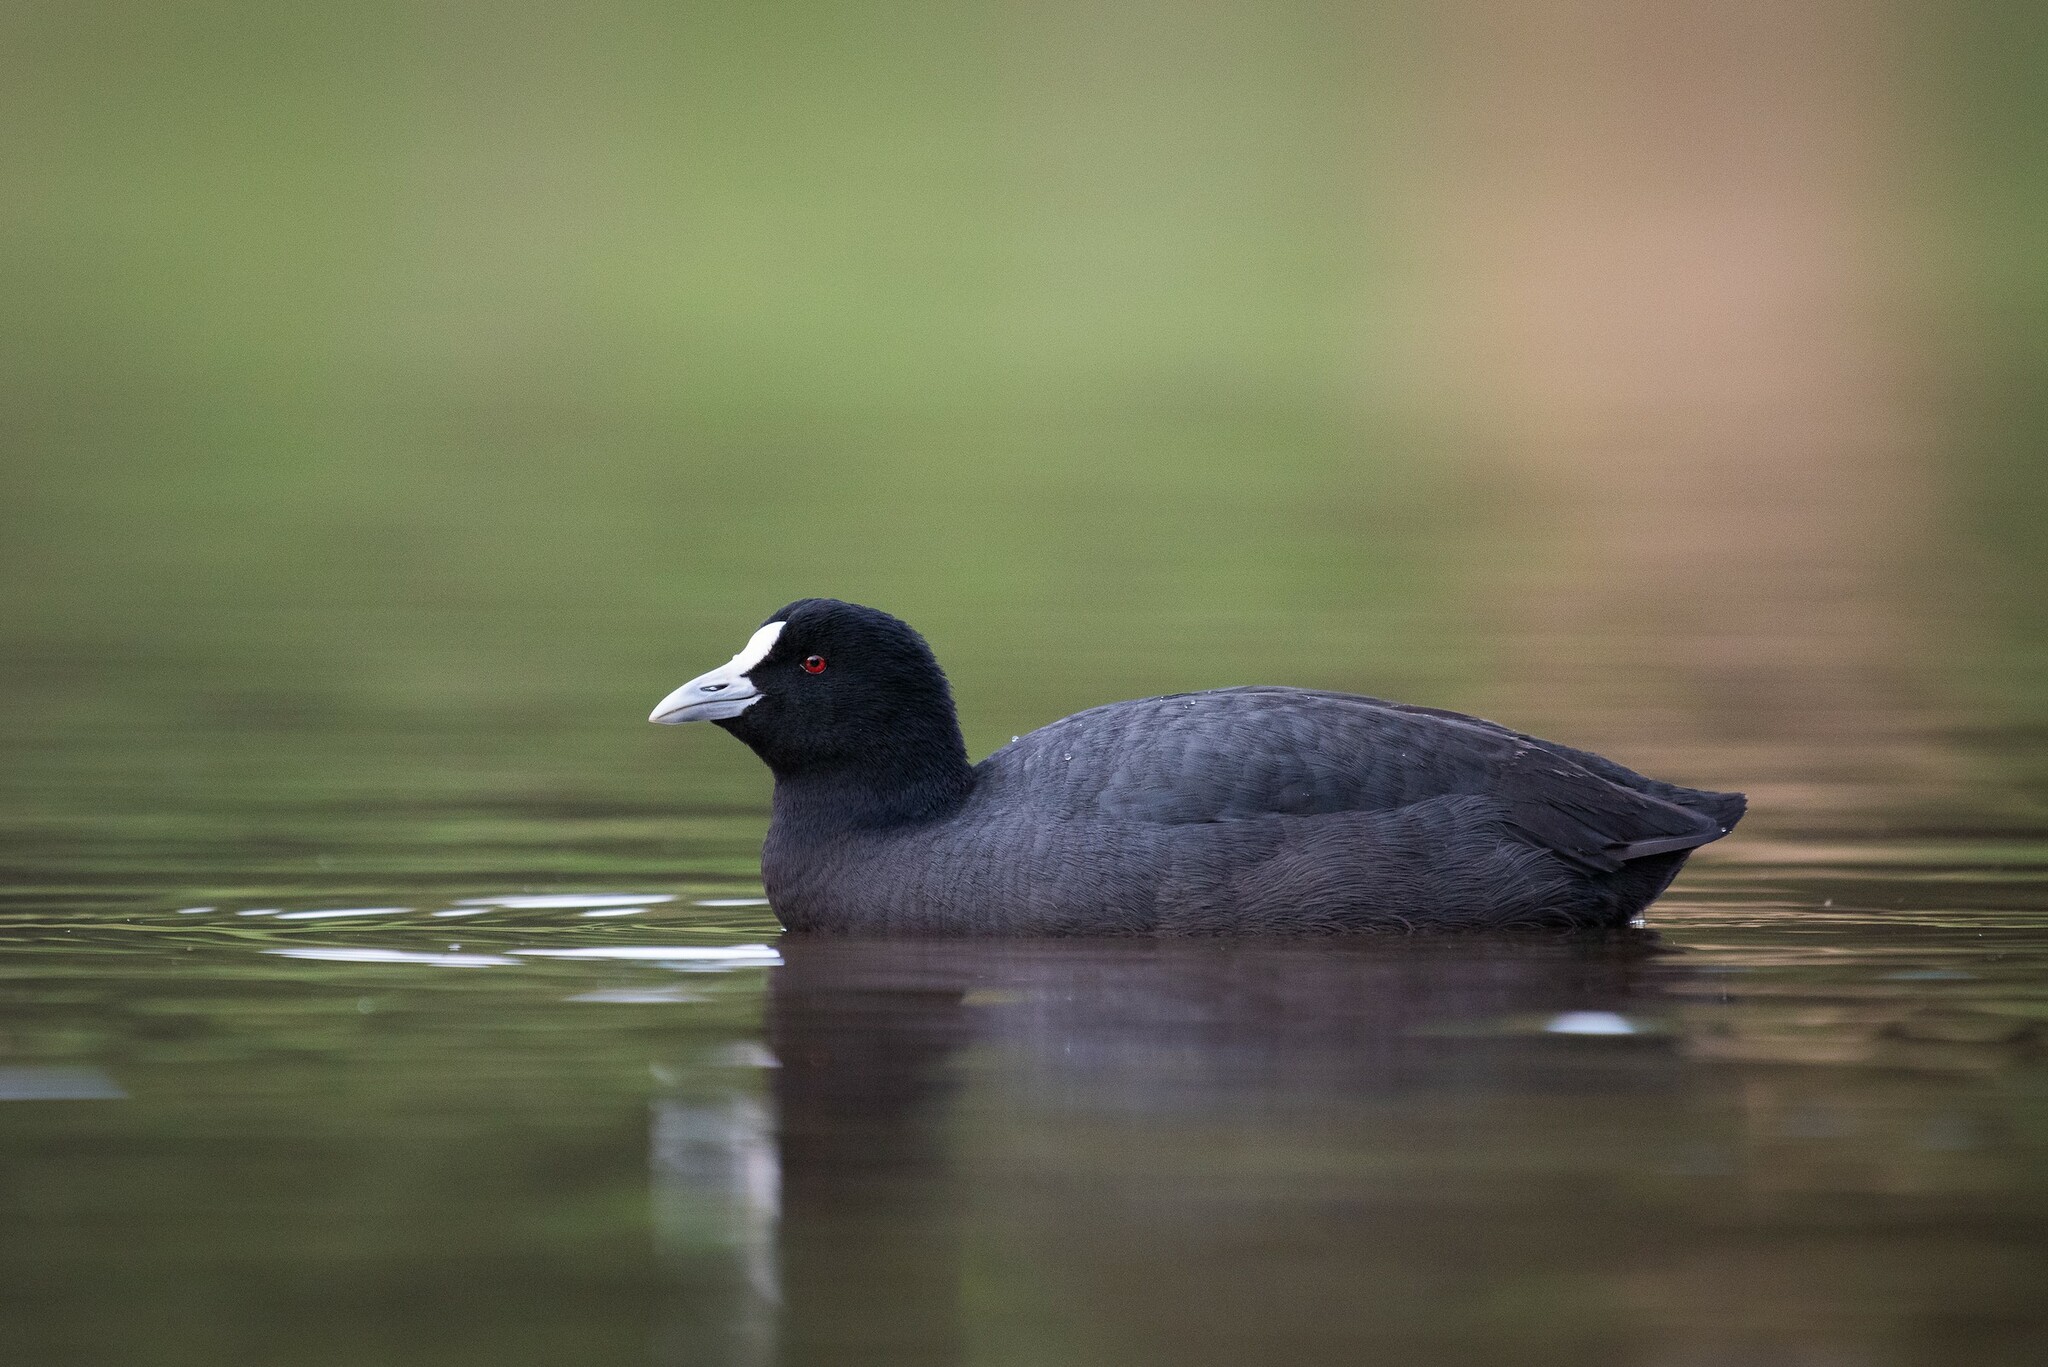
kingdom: Animalia
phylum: Chordata
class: Aves
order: Gruiformes
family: Rallidae
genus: Fulica
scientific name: Fulica atra
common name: Eurasian coot
